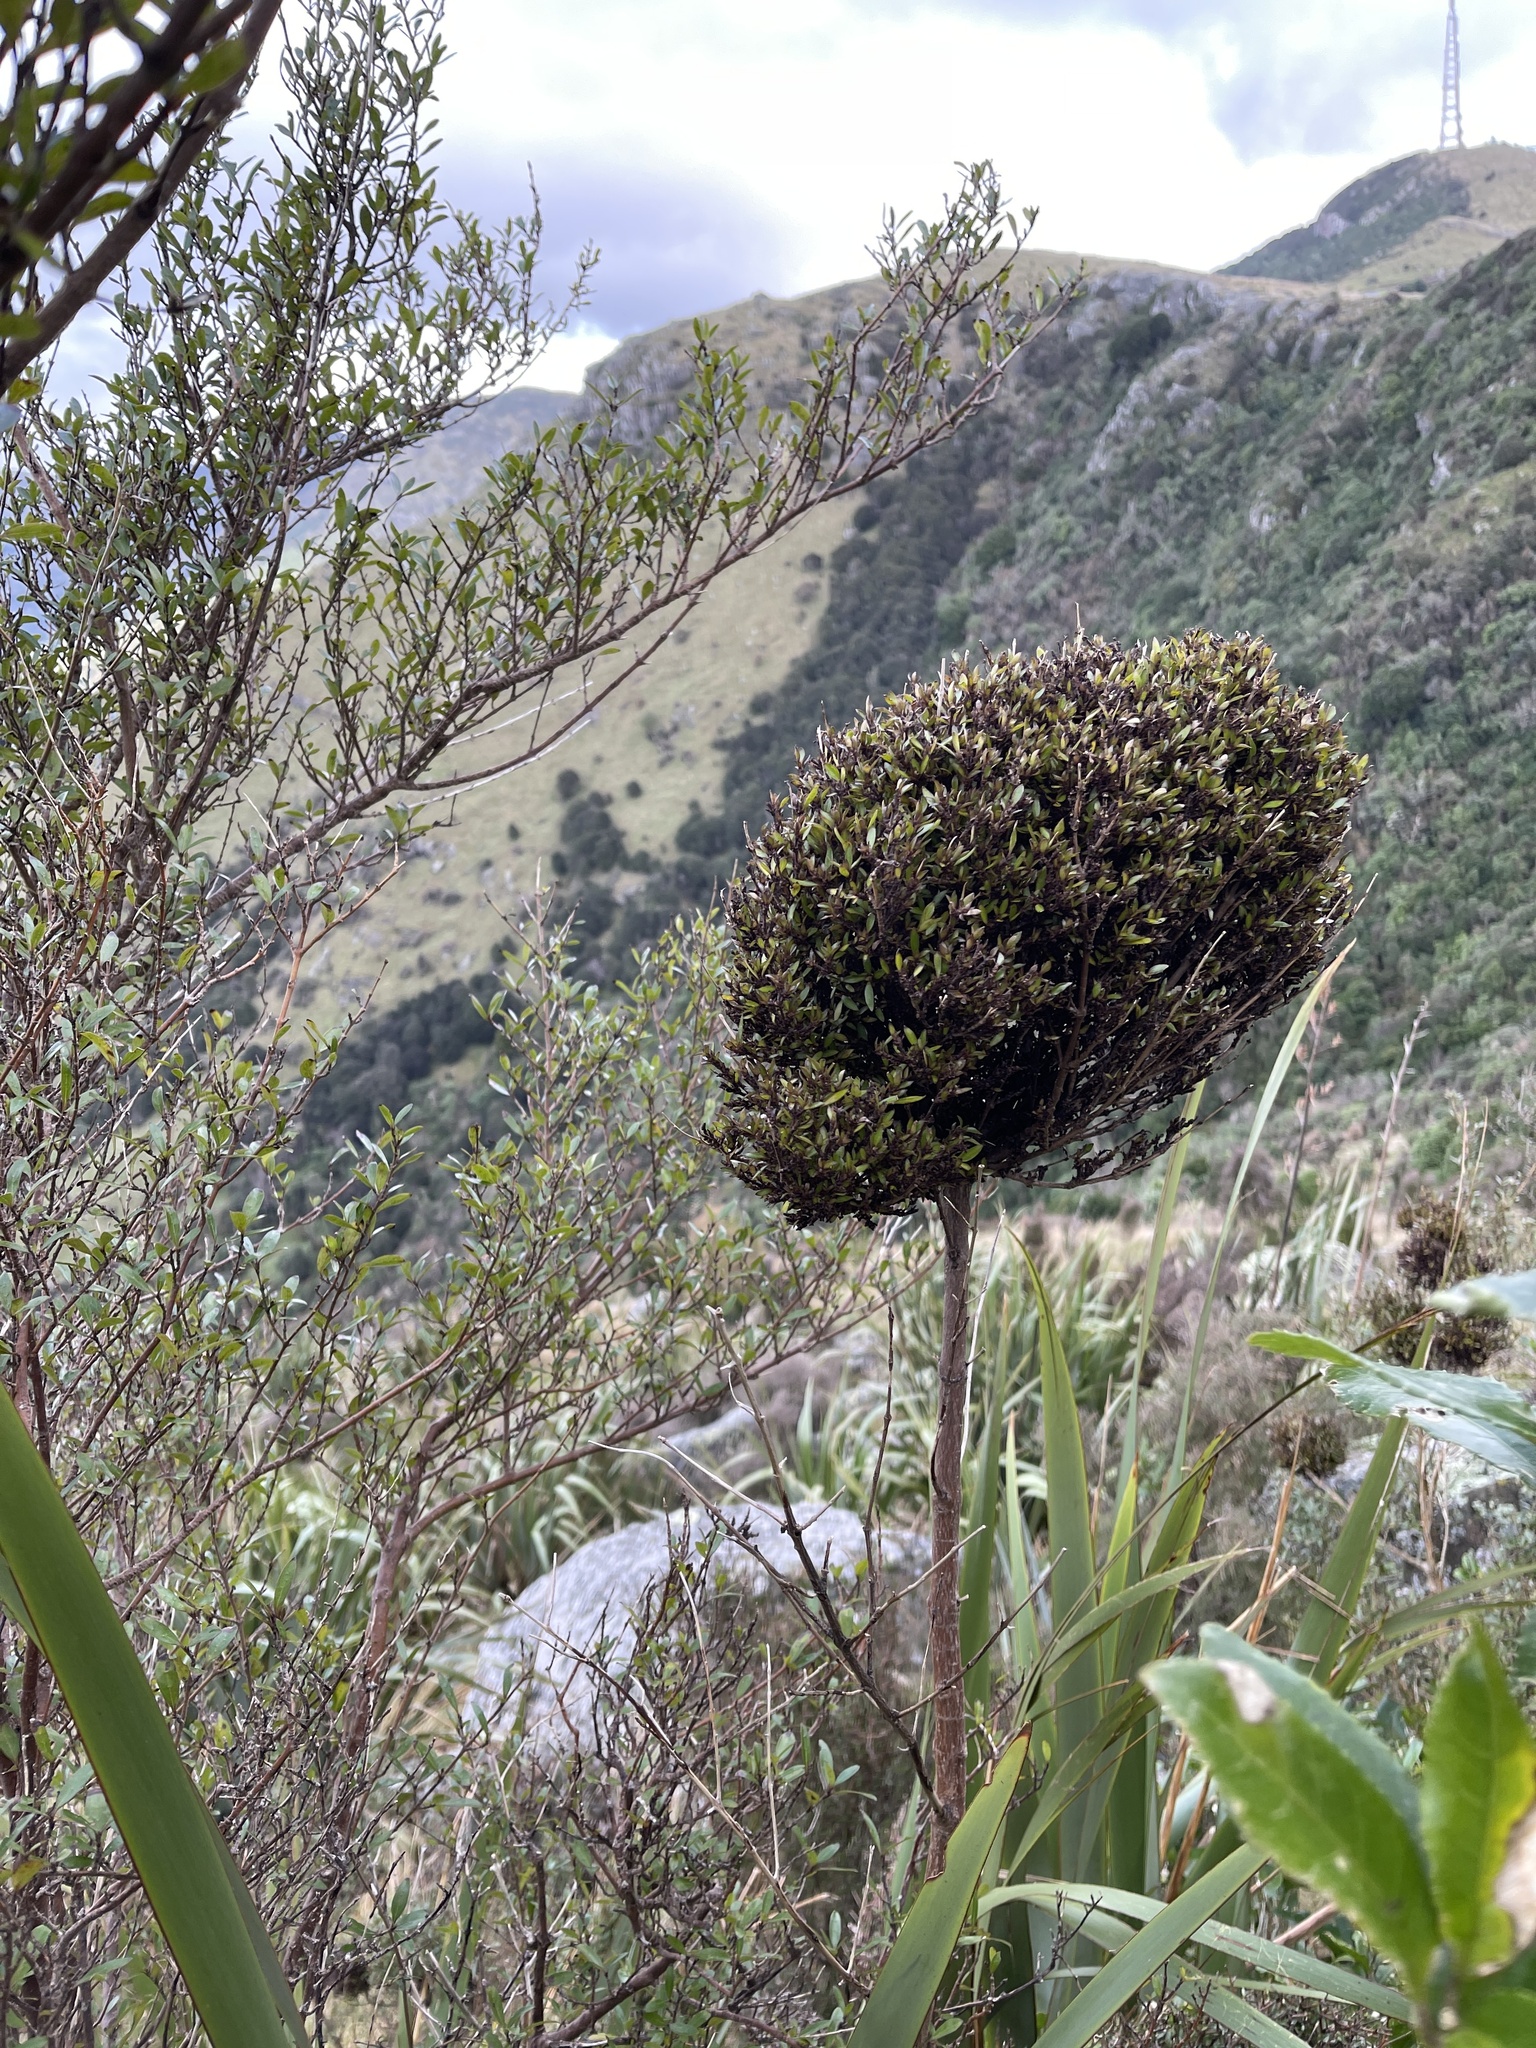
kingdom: Plantae
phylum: Tracheophyta
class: Magnoliopsida
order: Gentianales
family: Rubiaceae
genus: Coprosma
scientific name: Coprosma propinqua
